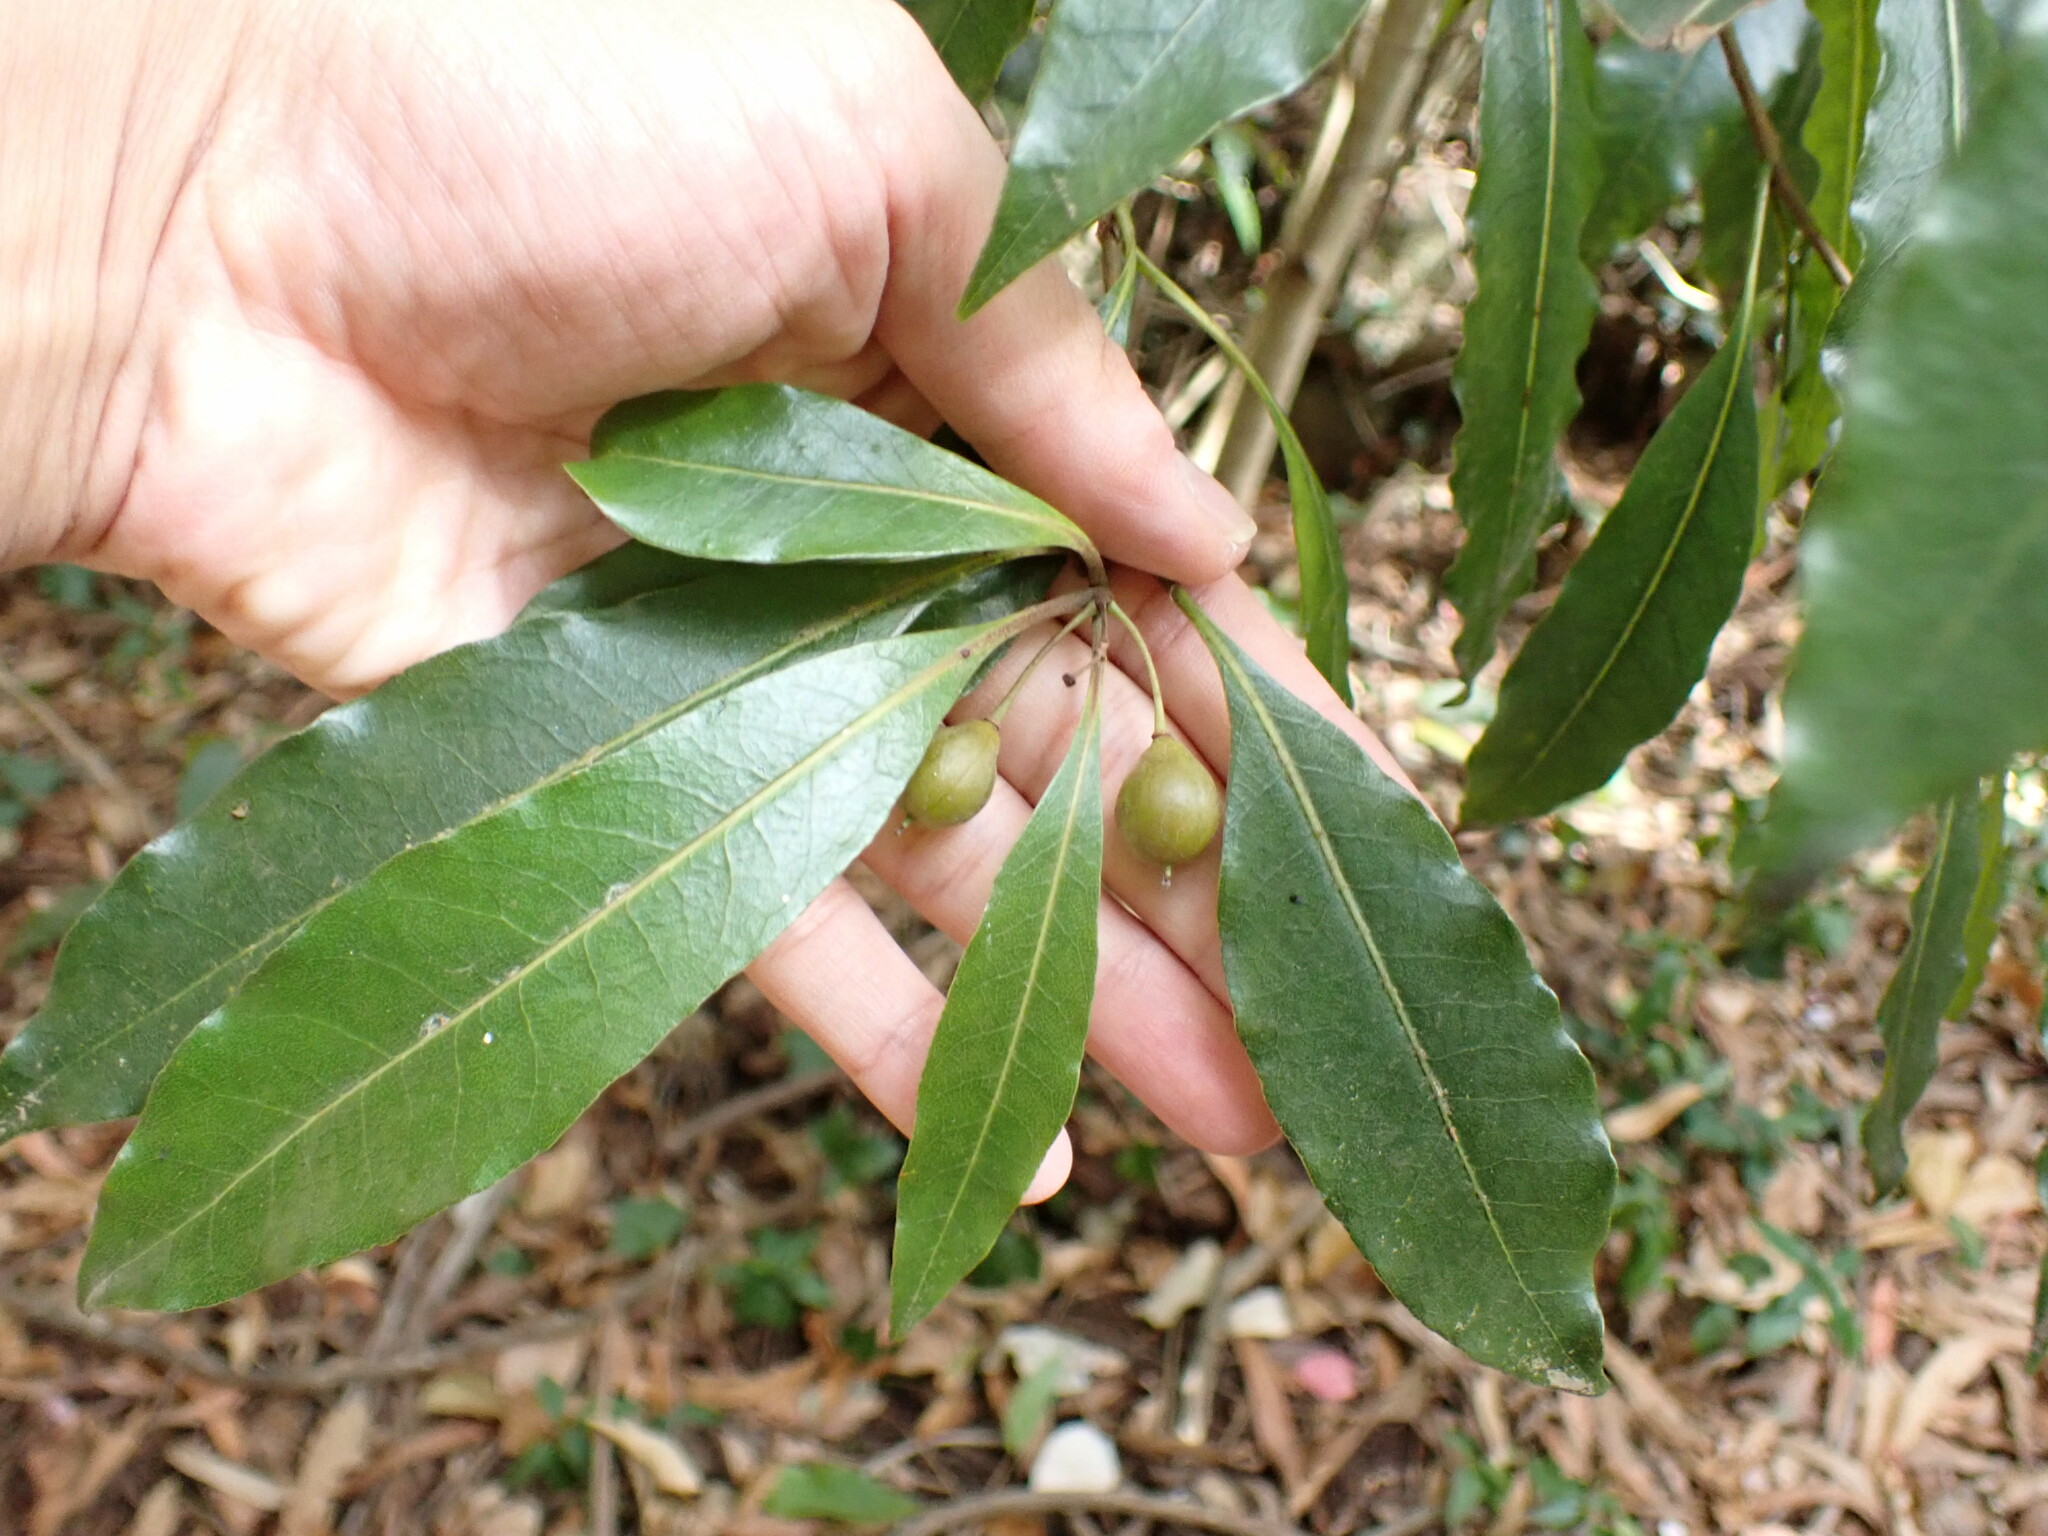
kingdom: Plantae
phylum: Tracheophyta
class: Magnoliopsida
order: Apiales
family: Pittosporaceae
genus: Pittosporum
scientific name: Pittosporum undulatum
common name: Australian cheesewood
